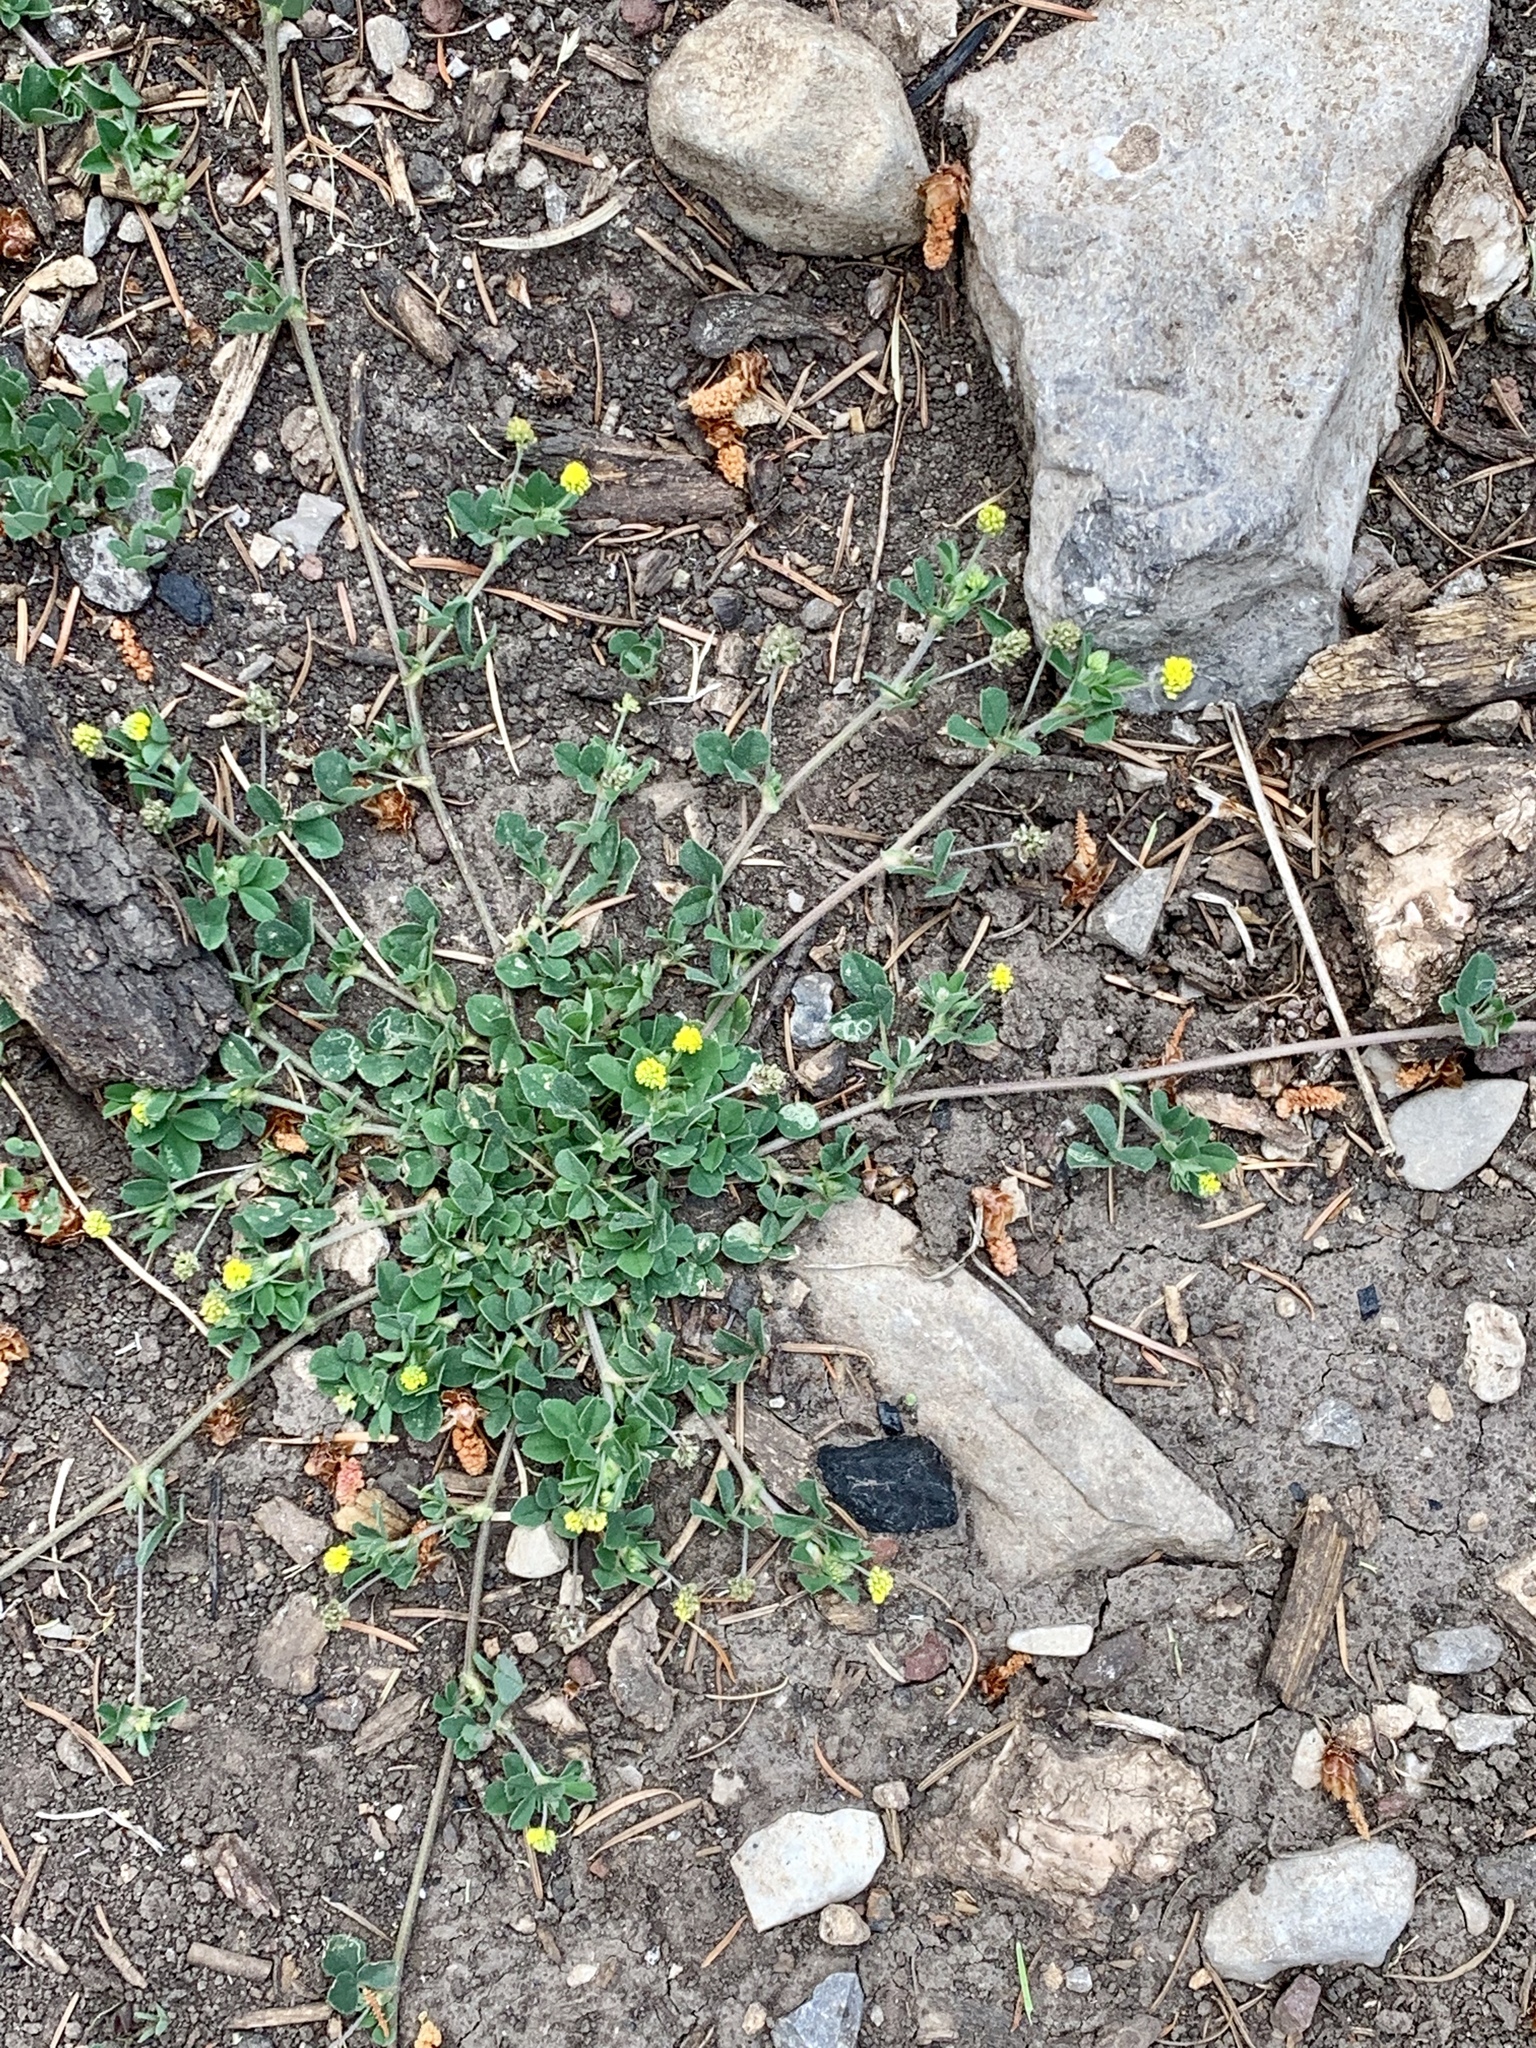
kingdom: Plantae
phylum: Tracheophyta
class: Magnoliopsida
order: Fabales
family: Fabaceae
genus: Medicago
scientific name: Medicago lupulina
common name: Black medick
